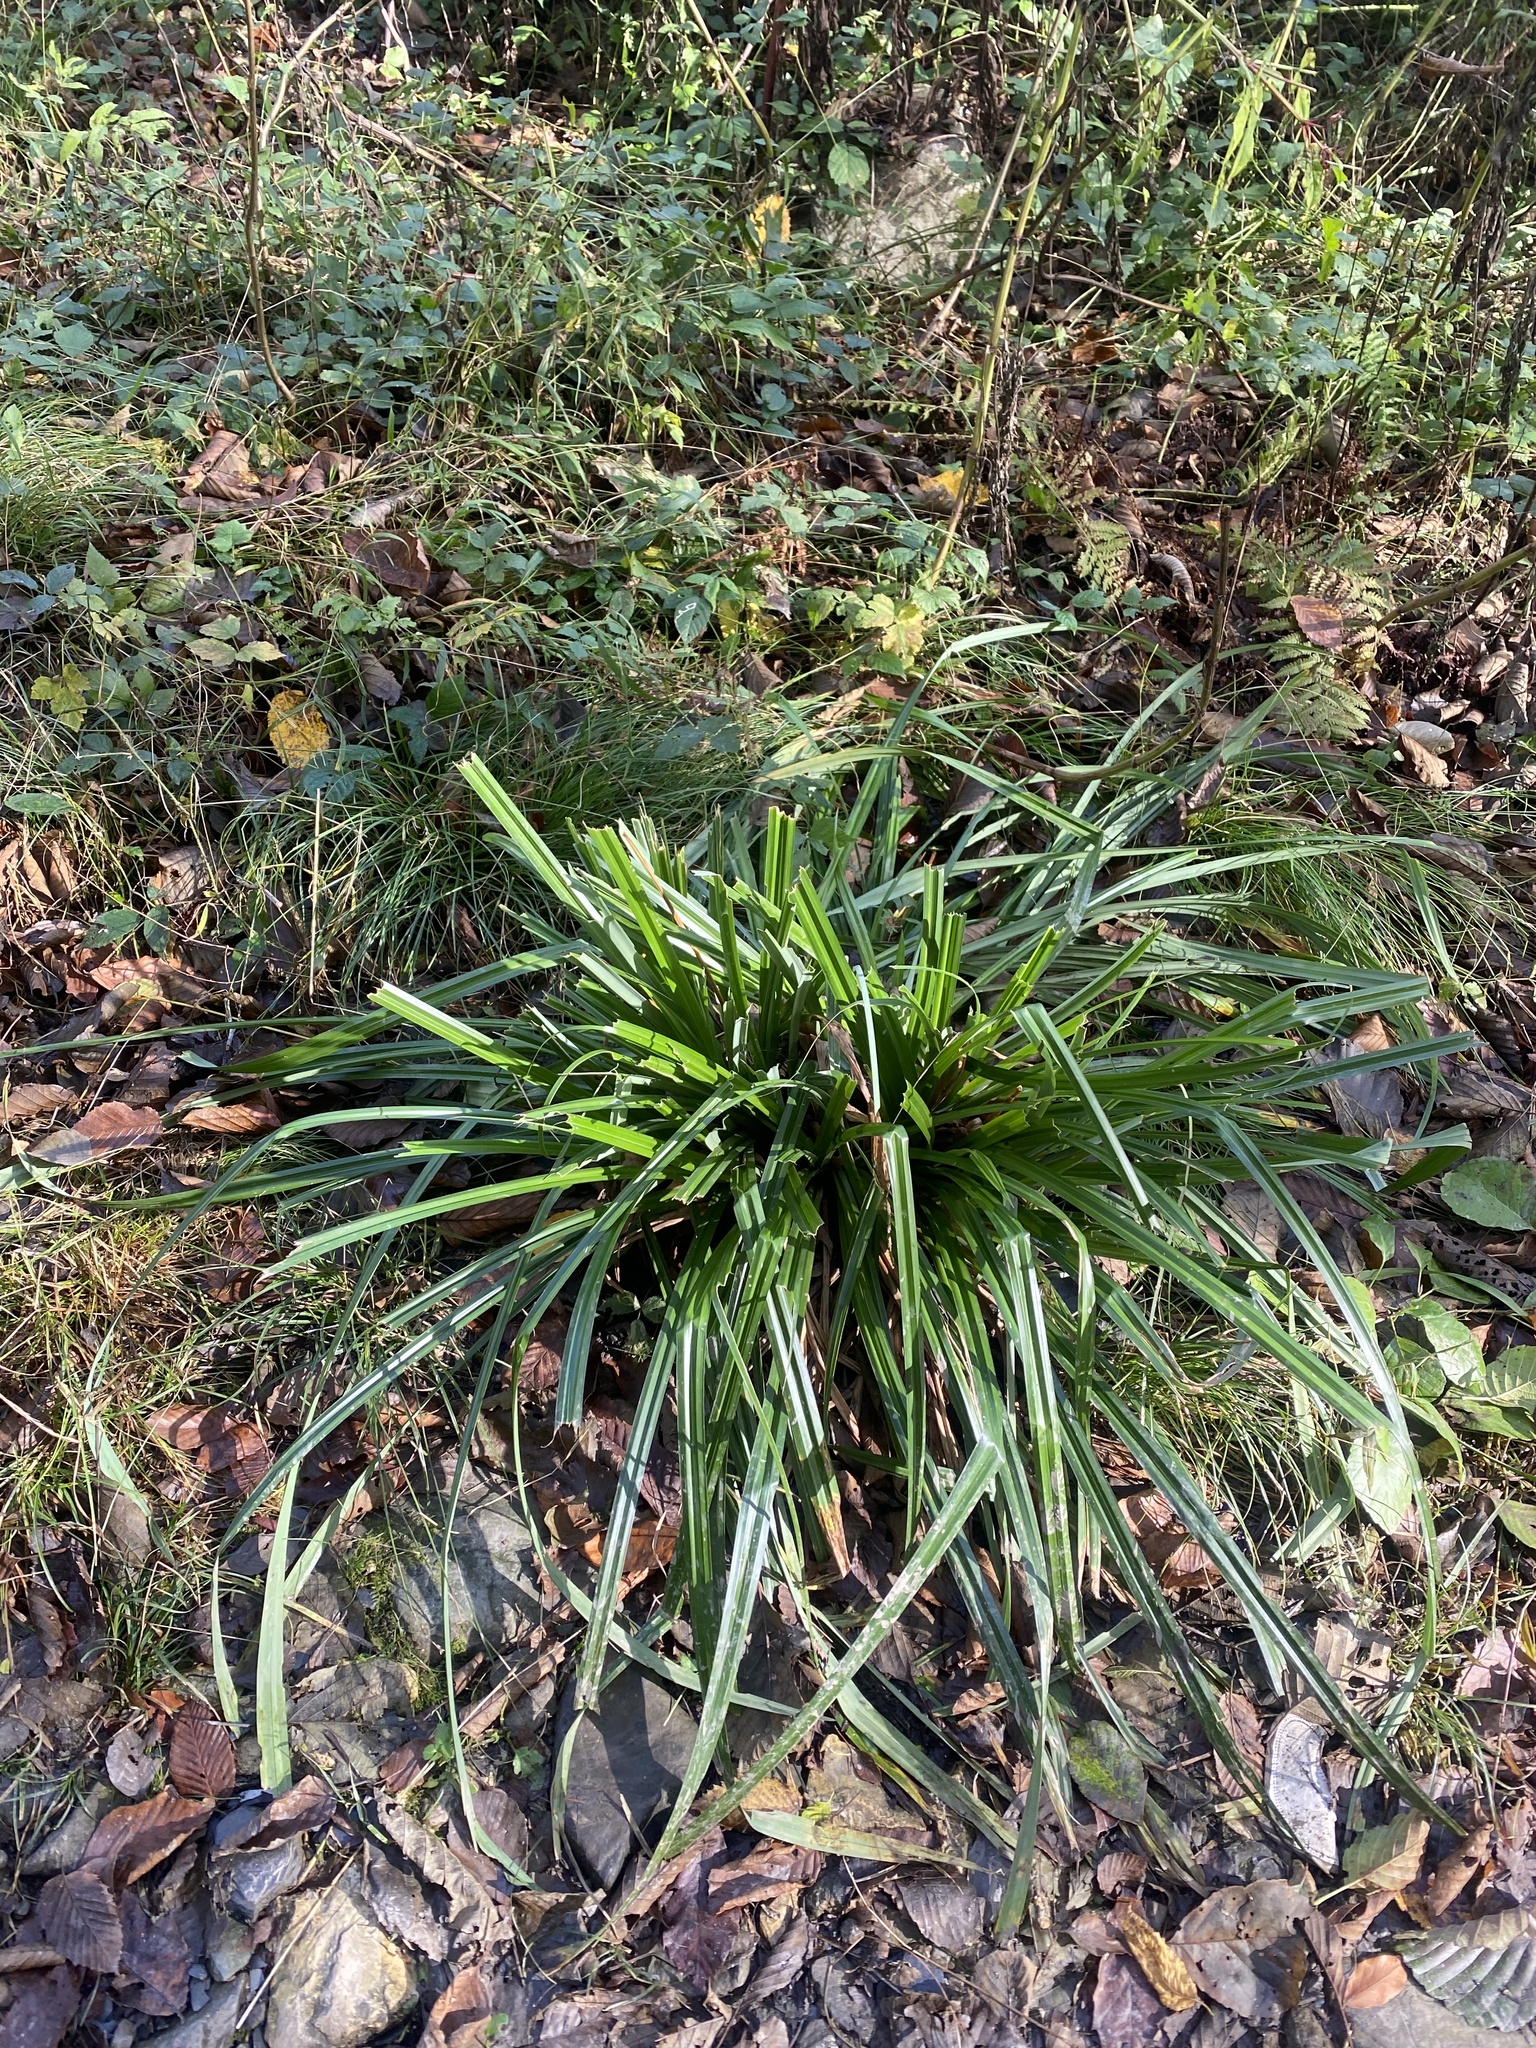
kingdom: Plantae
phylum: Tracheophyta
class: Liliopsida
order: Poales
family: Cyperaceae
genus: Carex
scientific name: Carex pendula
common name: Pendulous sedge
